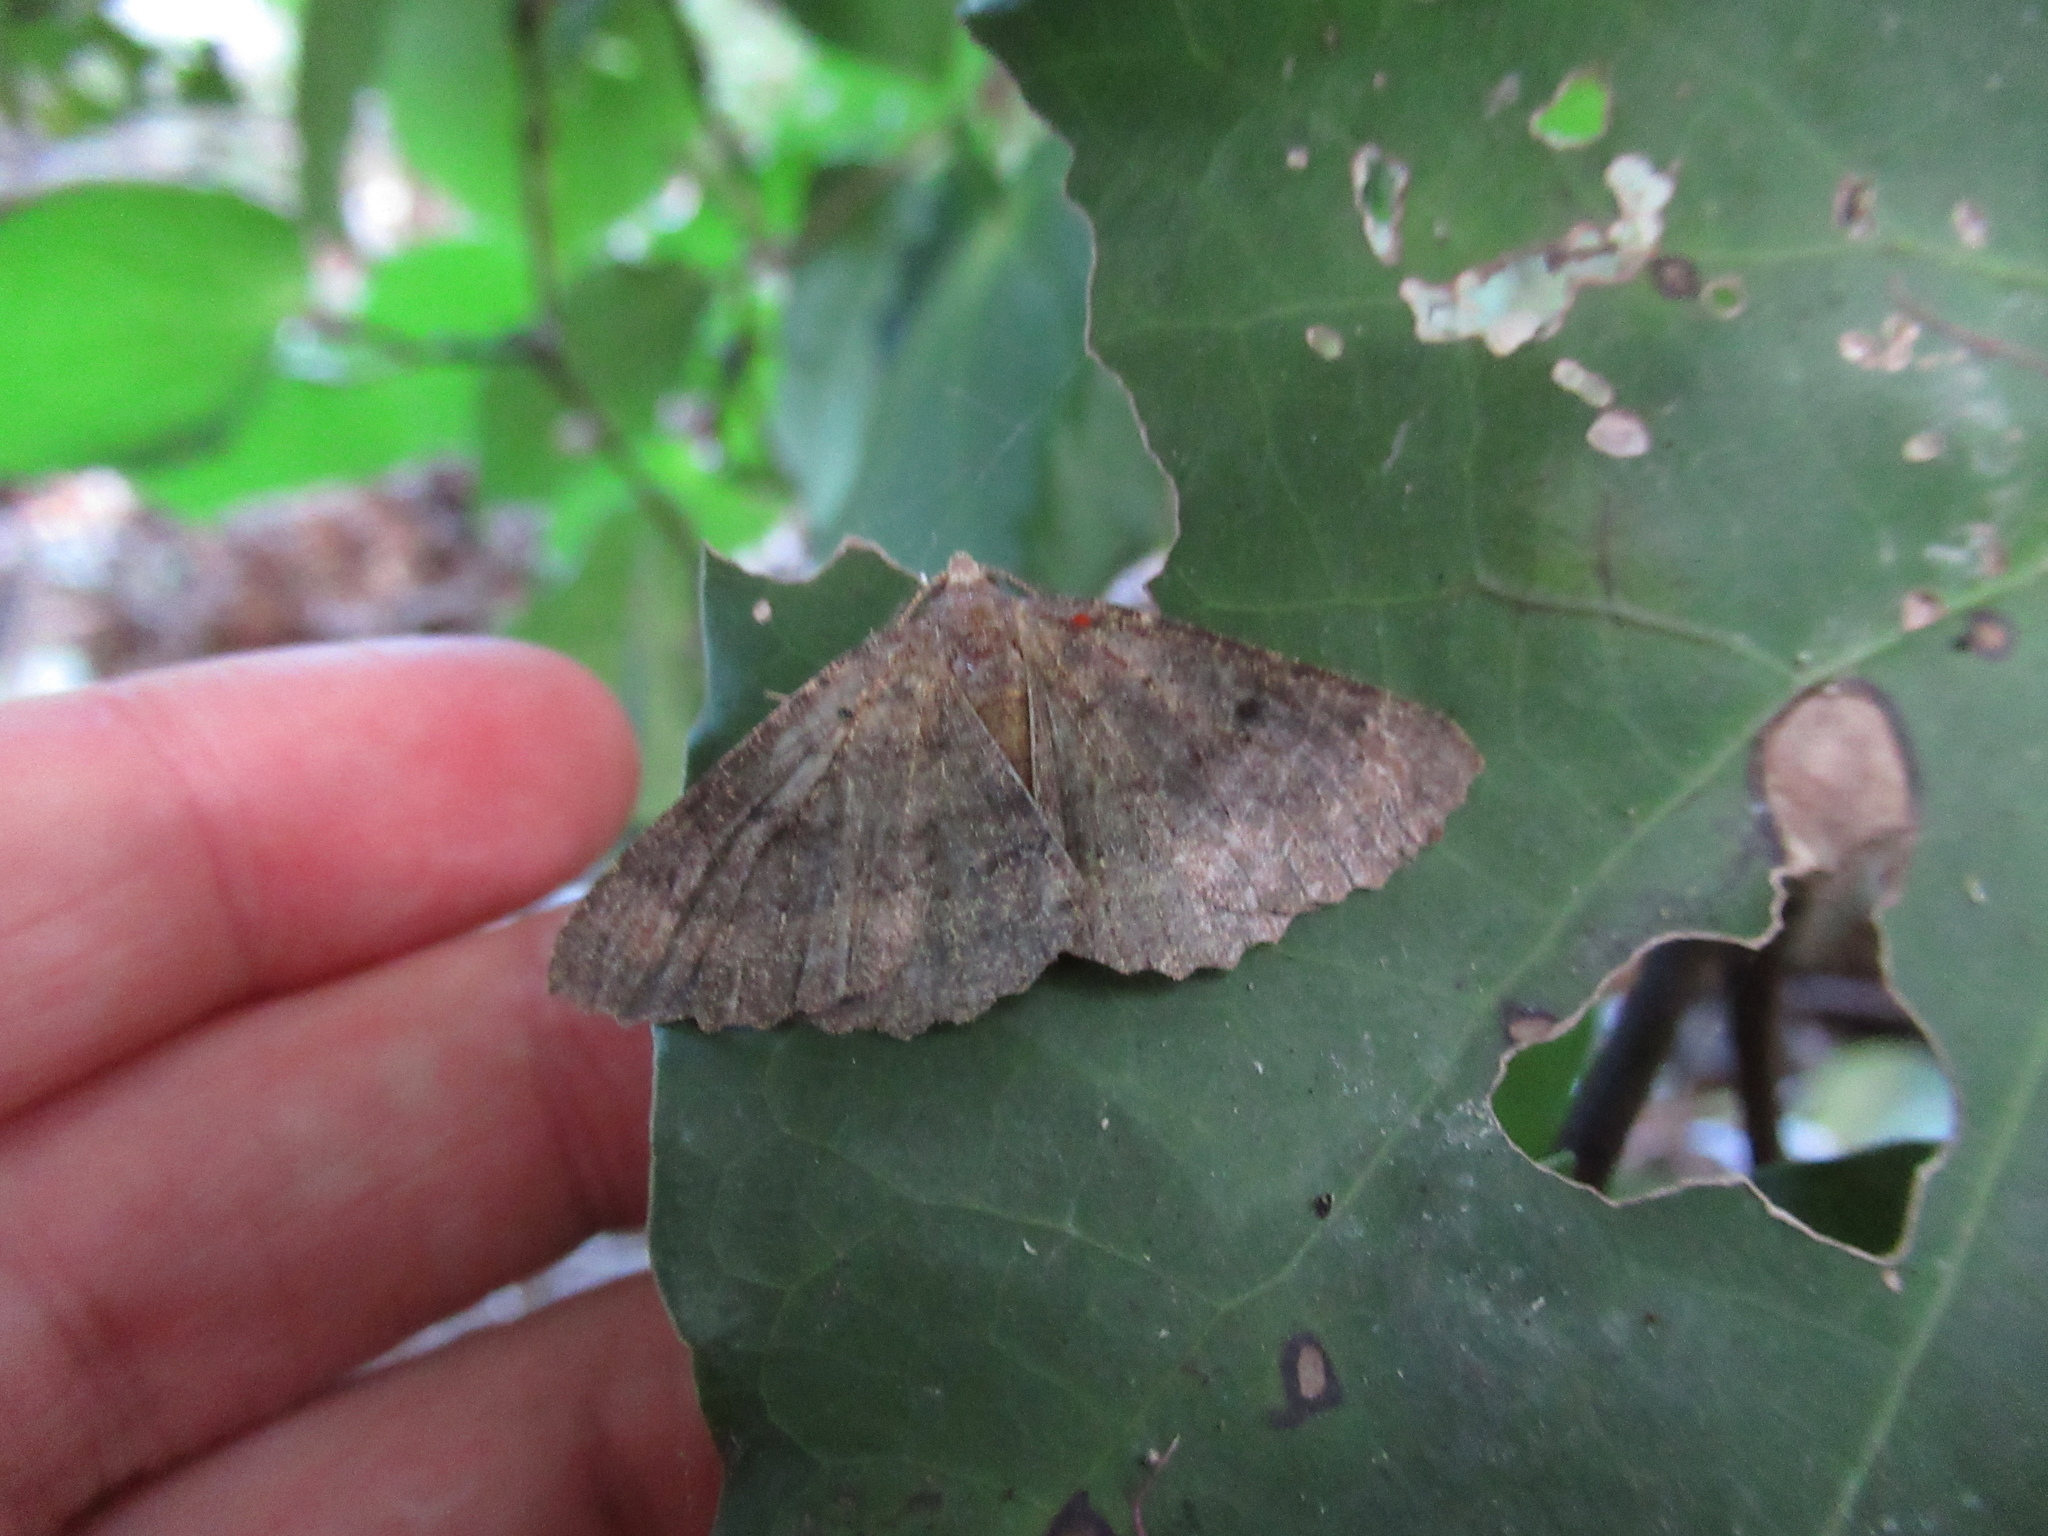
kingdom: Animalia
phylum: Arthropoda
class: Insecta
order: Lepidoptera
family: Geometridae
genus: Cleora
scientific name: Cleora scriptaria
